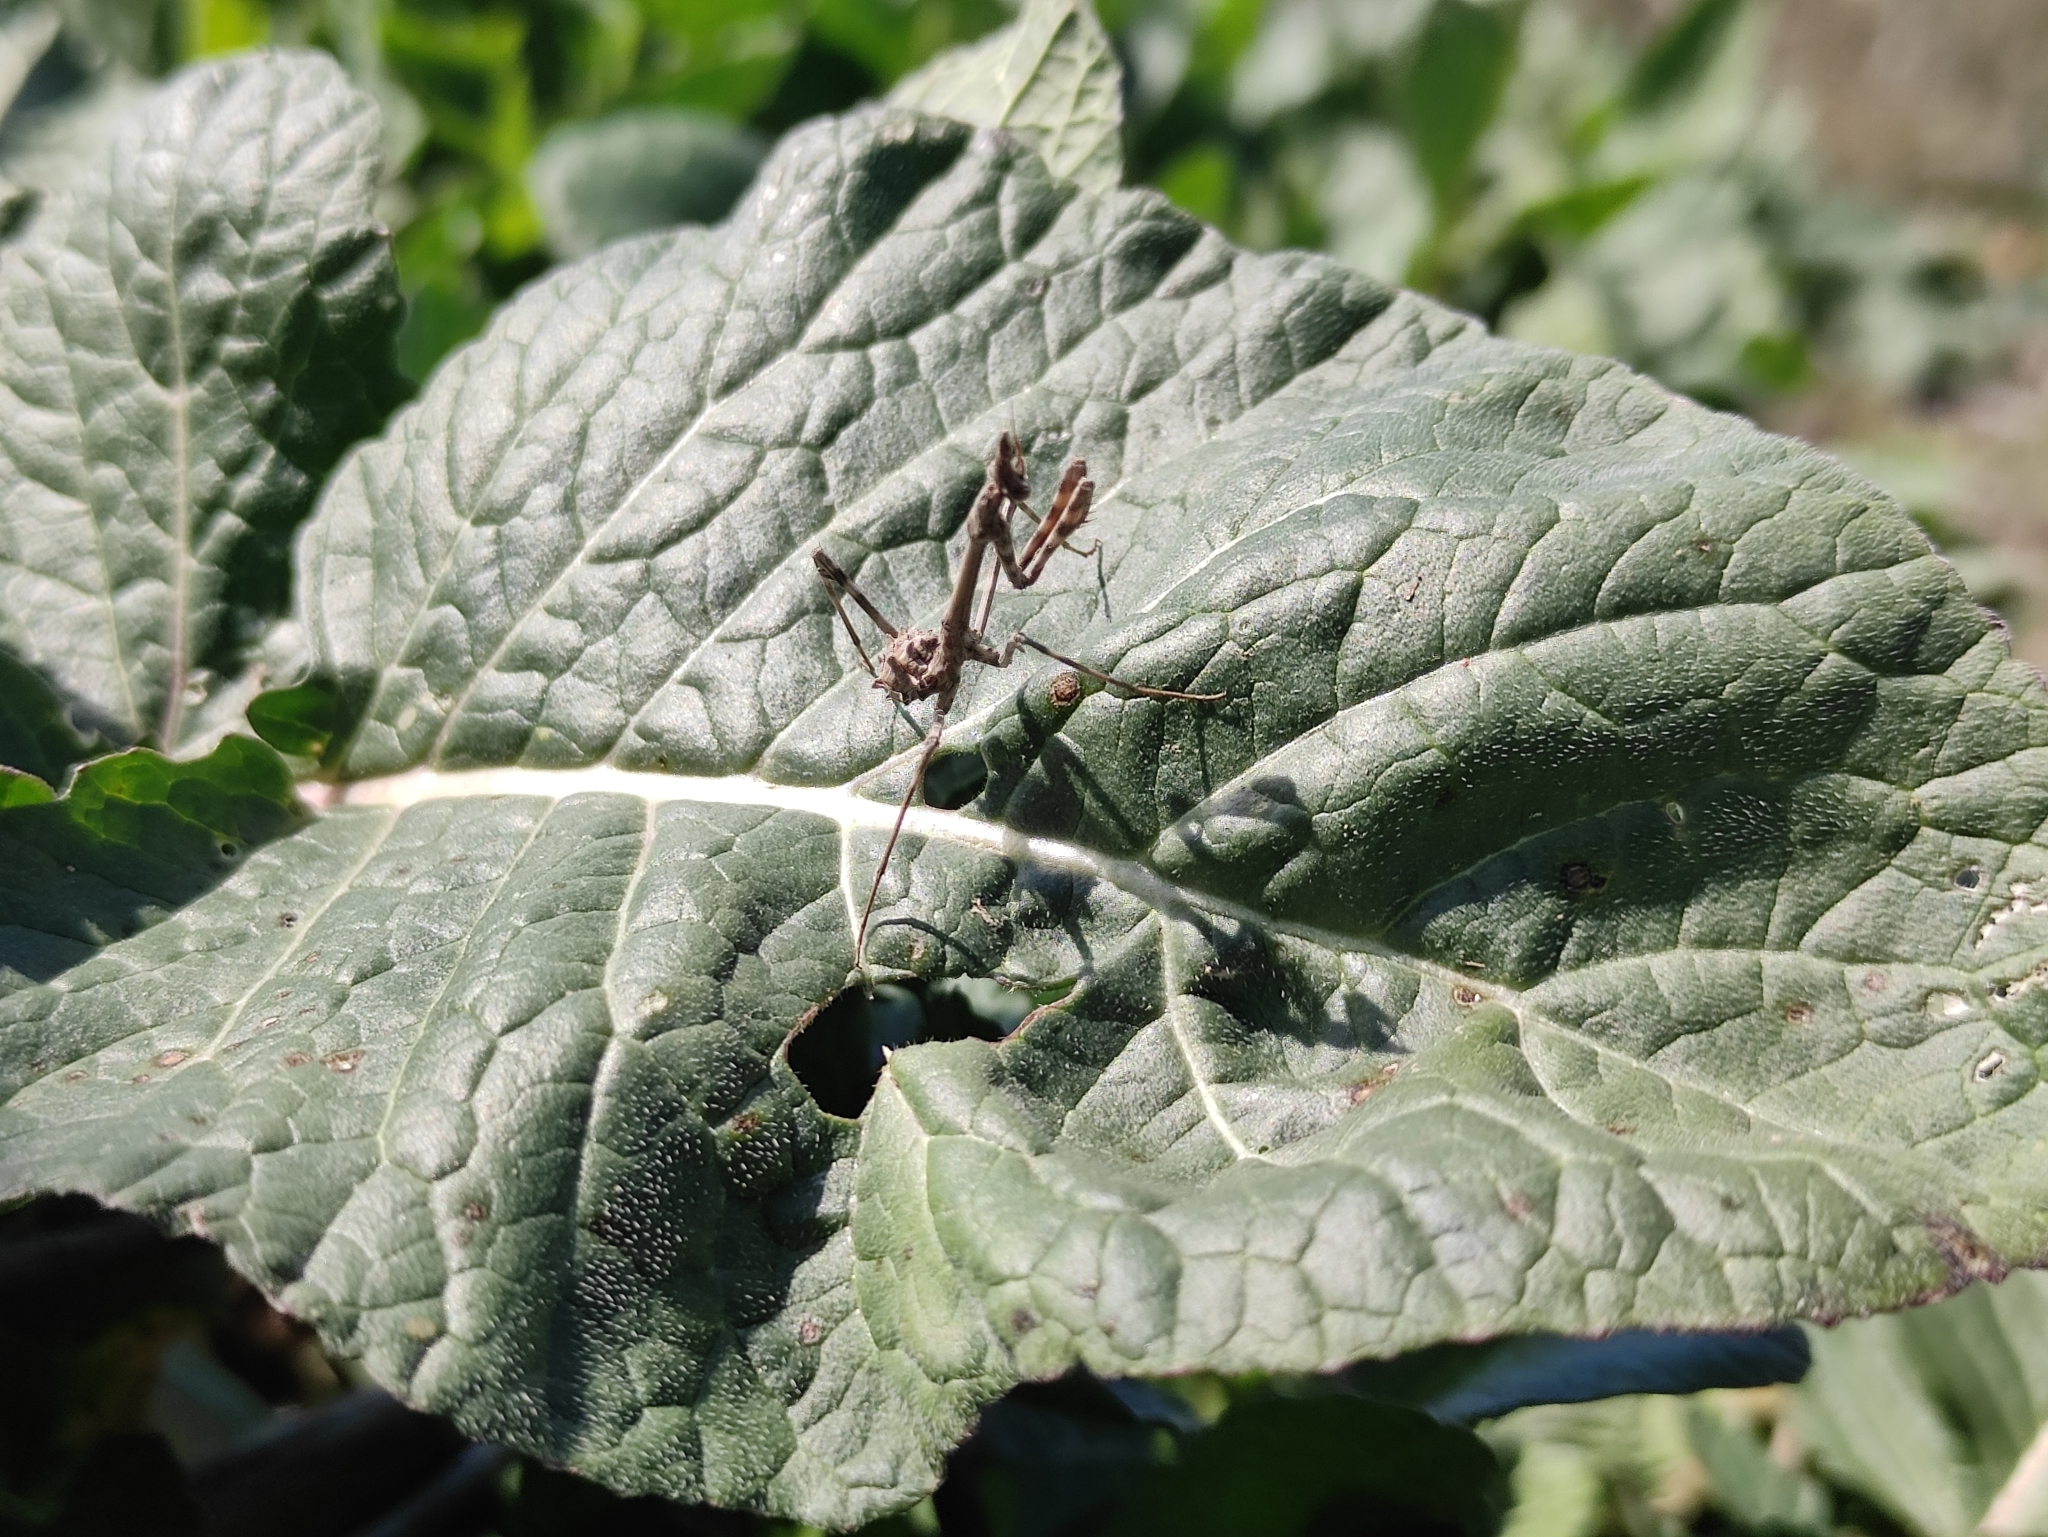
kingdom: Animalia
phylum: Arthropoda
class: Insecta
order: Mantodea
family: Empusidae
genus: Empusa
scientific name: Empusa pennata
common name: Conehead mantis
